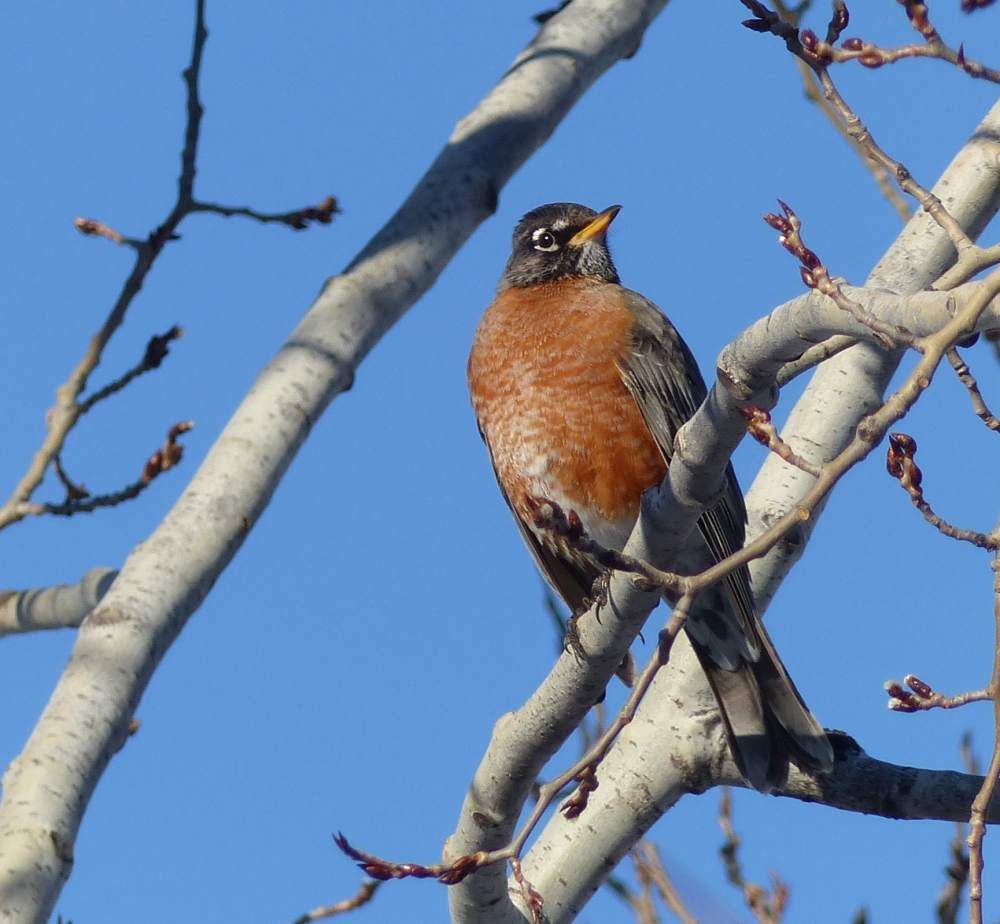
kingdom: Animalia
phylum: Chordata
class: Aves
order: Passeriformes
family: Turdidae
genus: Turdus
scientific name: Turdus migratorius
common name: American robin
